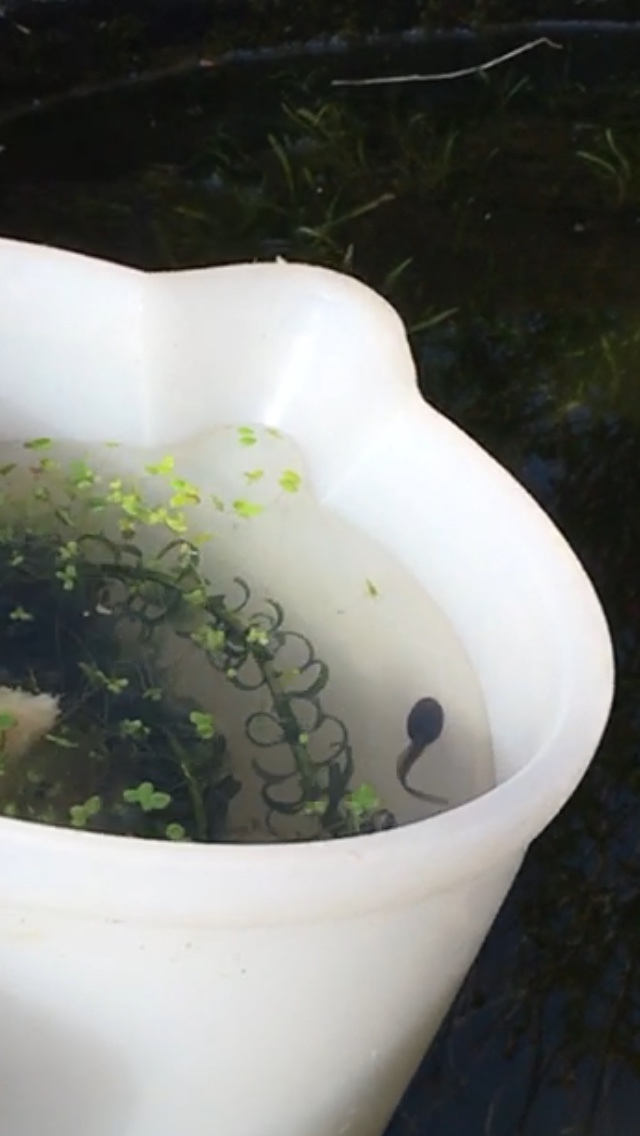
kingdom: Animalia
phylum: Chordata
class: Amphibia
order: Anura
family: Ranidae
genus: Rana
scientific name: Rana temporaria
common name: Common frog
